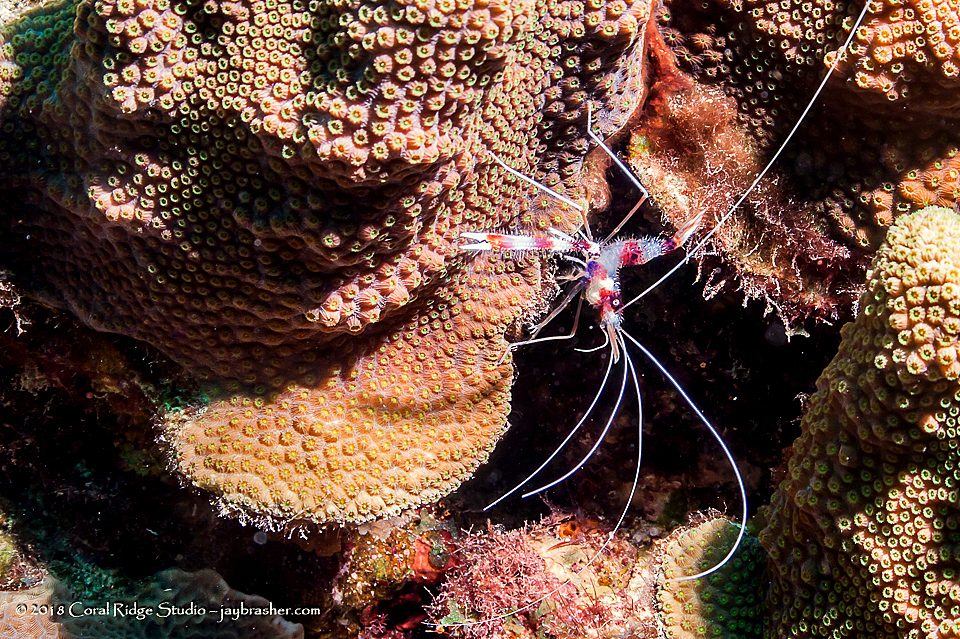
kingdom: Animalia
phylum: Arthropoda
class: Malacostraca
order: Decapoda
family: Stenopodidae
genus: Stenopus
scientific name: Stenopus hispidus
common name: Banded coral shrimp
